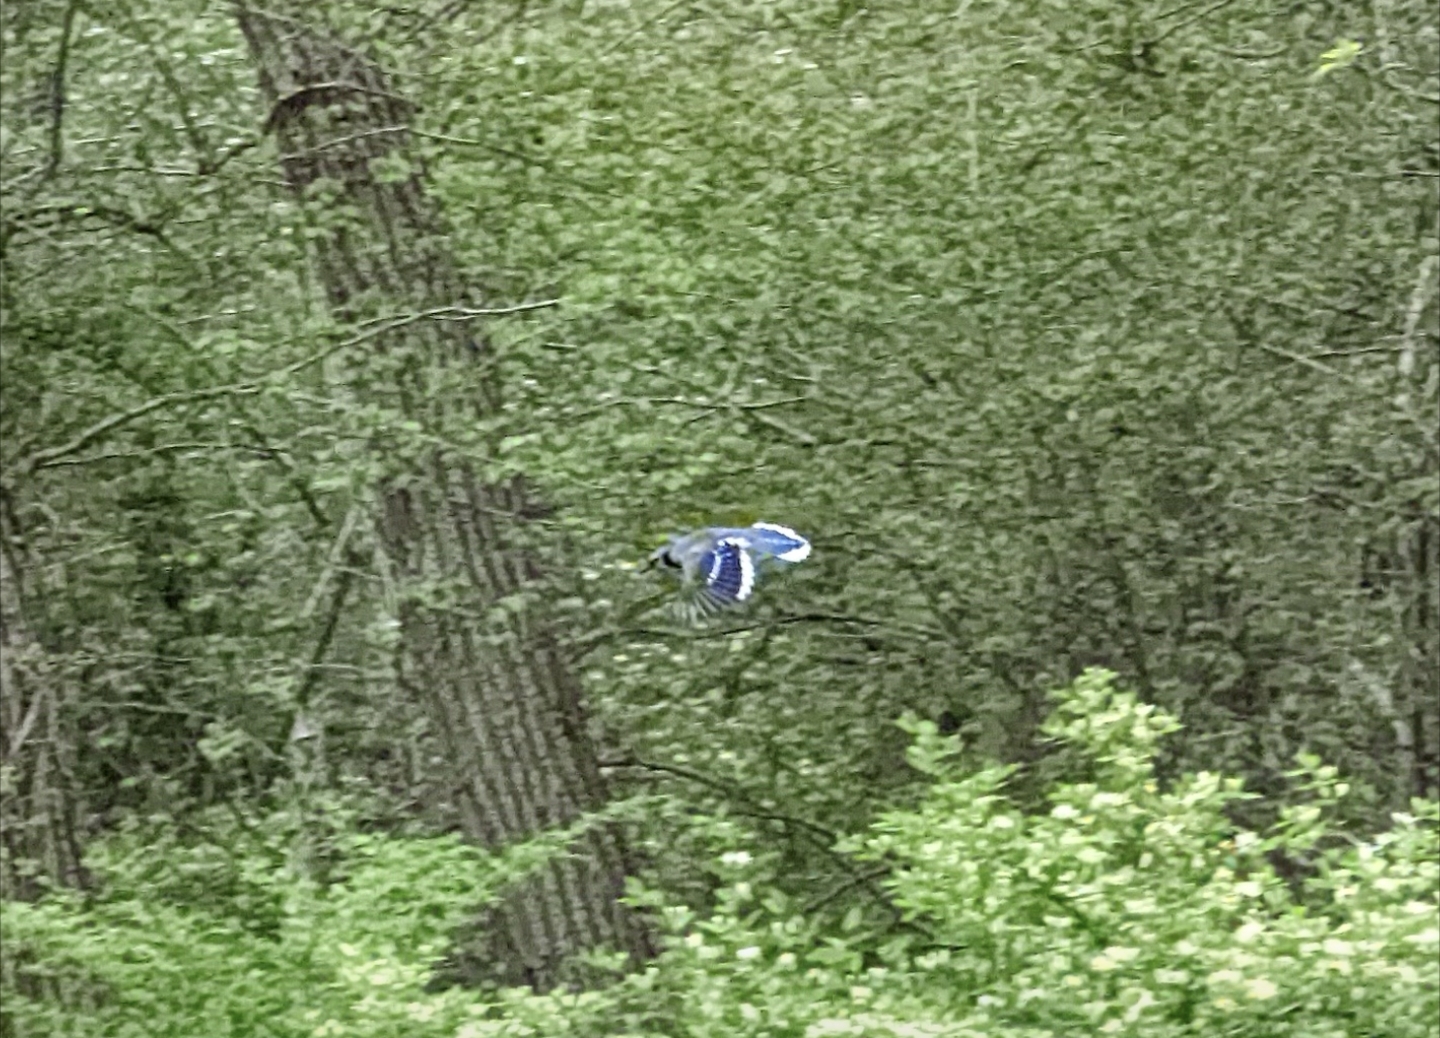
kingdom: Animalia
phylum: Chordata
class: Aves
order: Passeriformes
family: Corvidae
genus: Cyanocitta
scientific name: Cyanocitta cristata
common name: Blue jay
